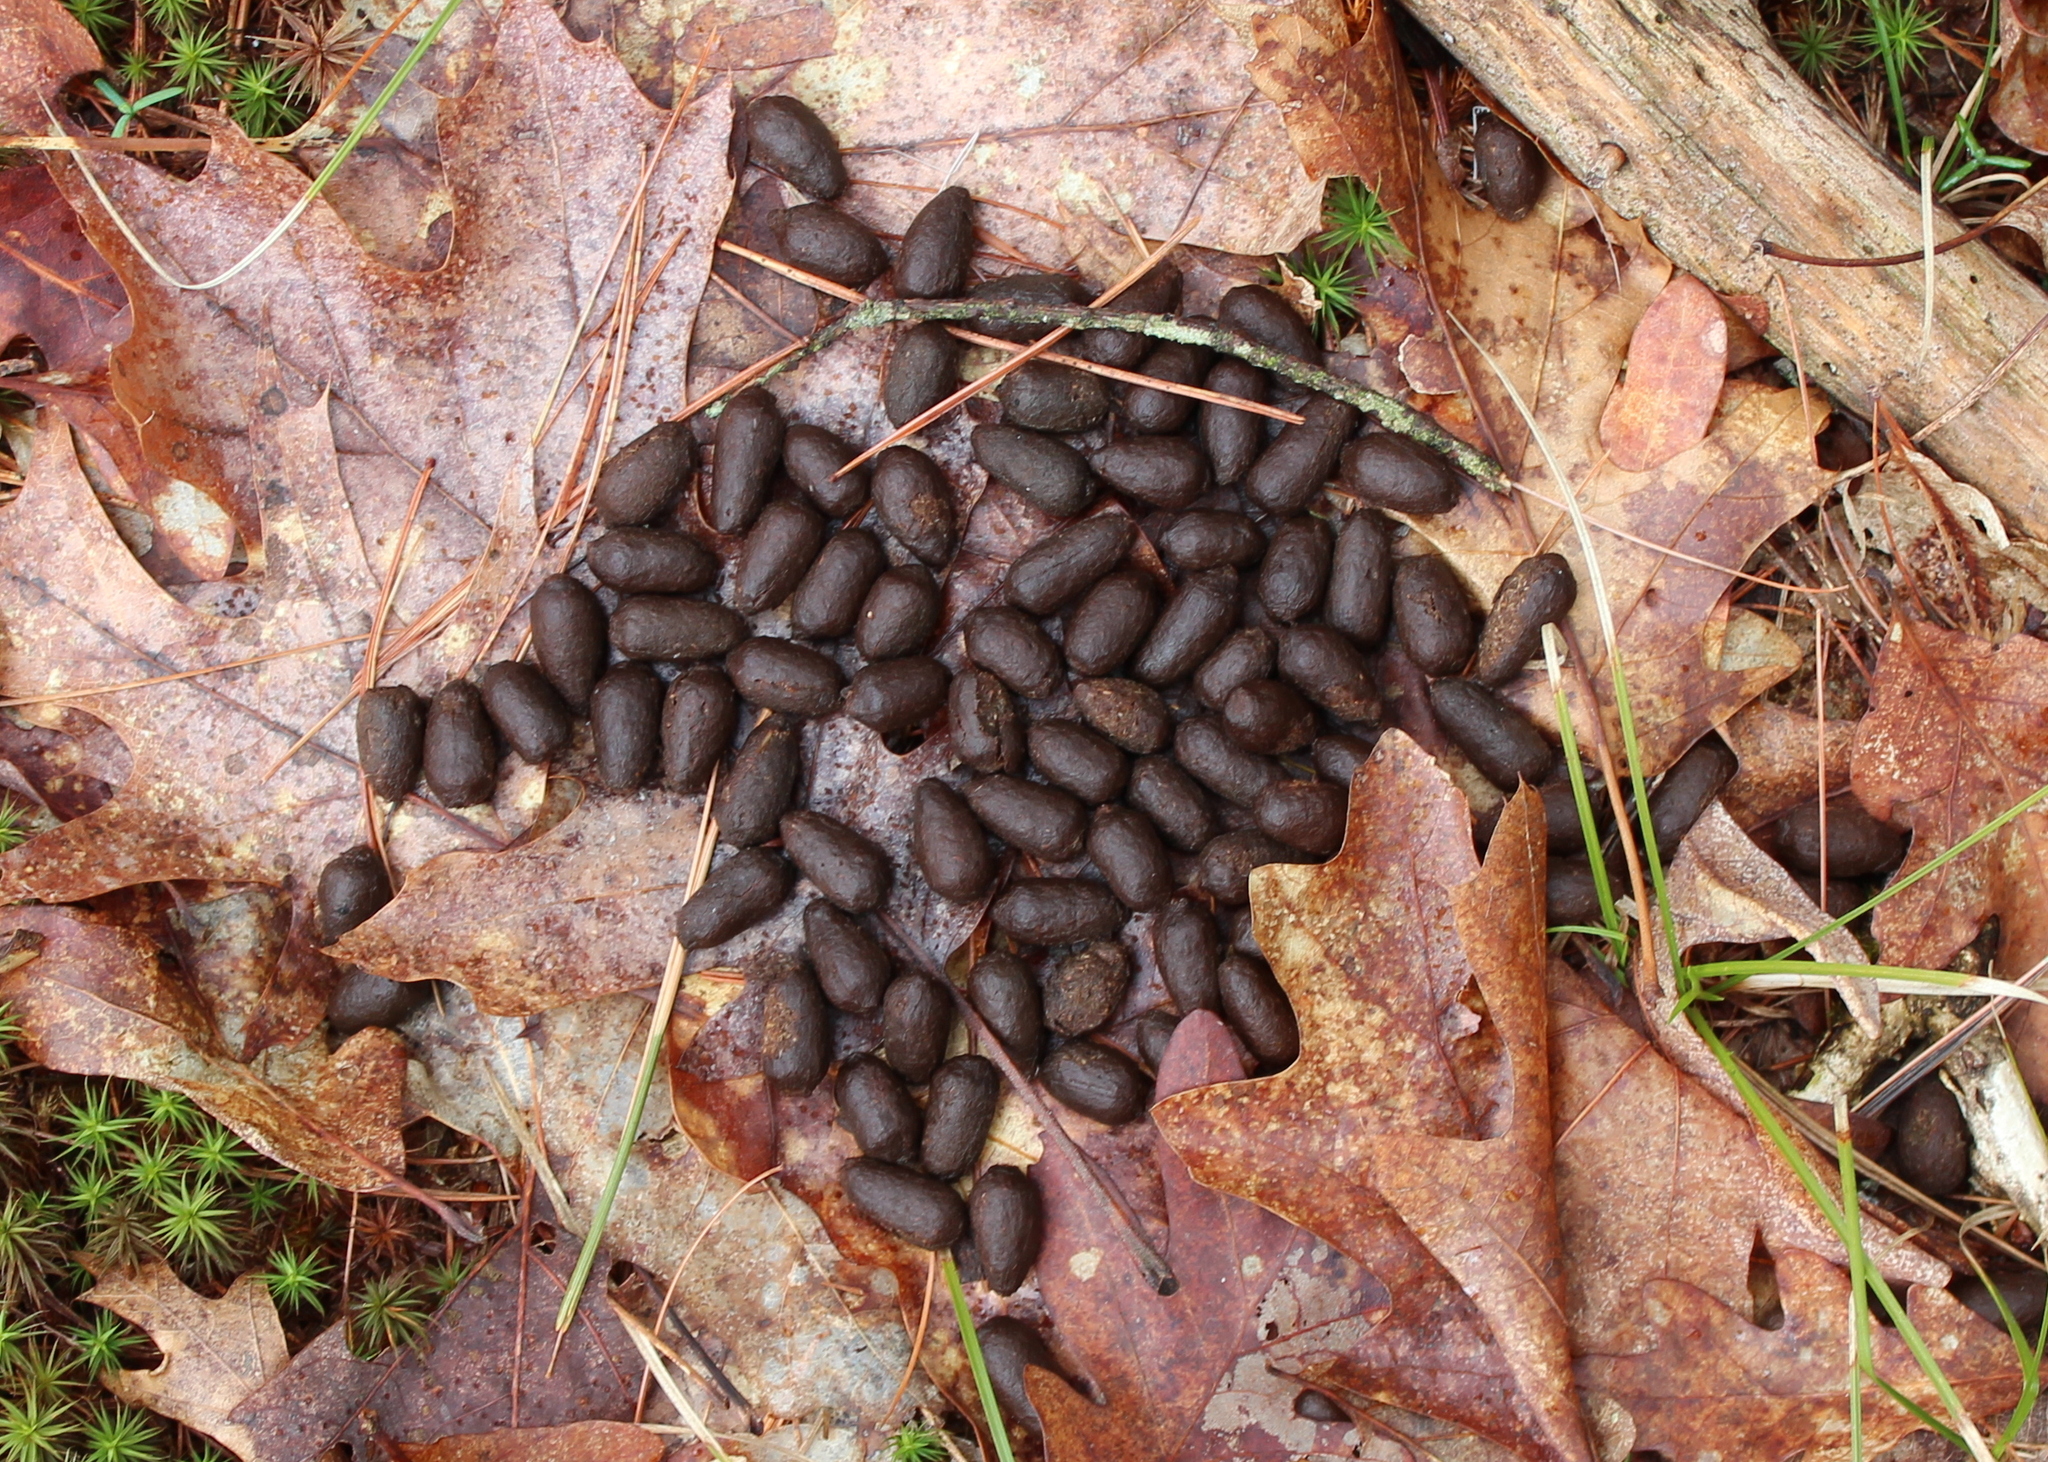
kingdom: Animalia
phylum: Chordata
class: Mammalia
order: Artiodactyla
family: Cervidae
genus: Odocoileus
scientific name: Odocoileus virginianus
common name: White-tailed deer
